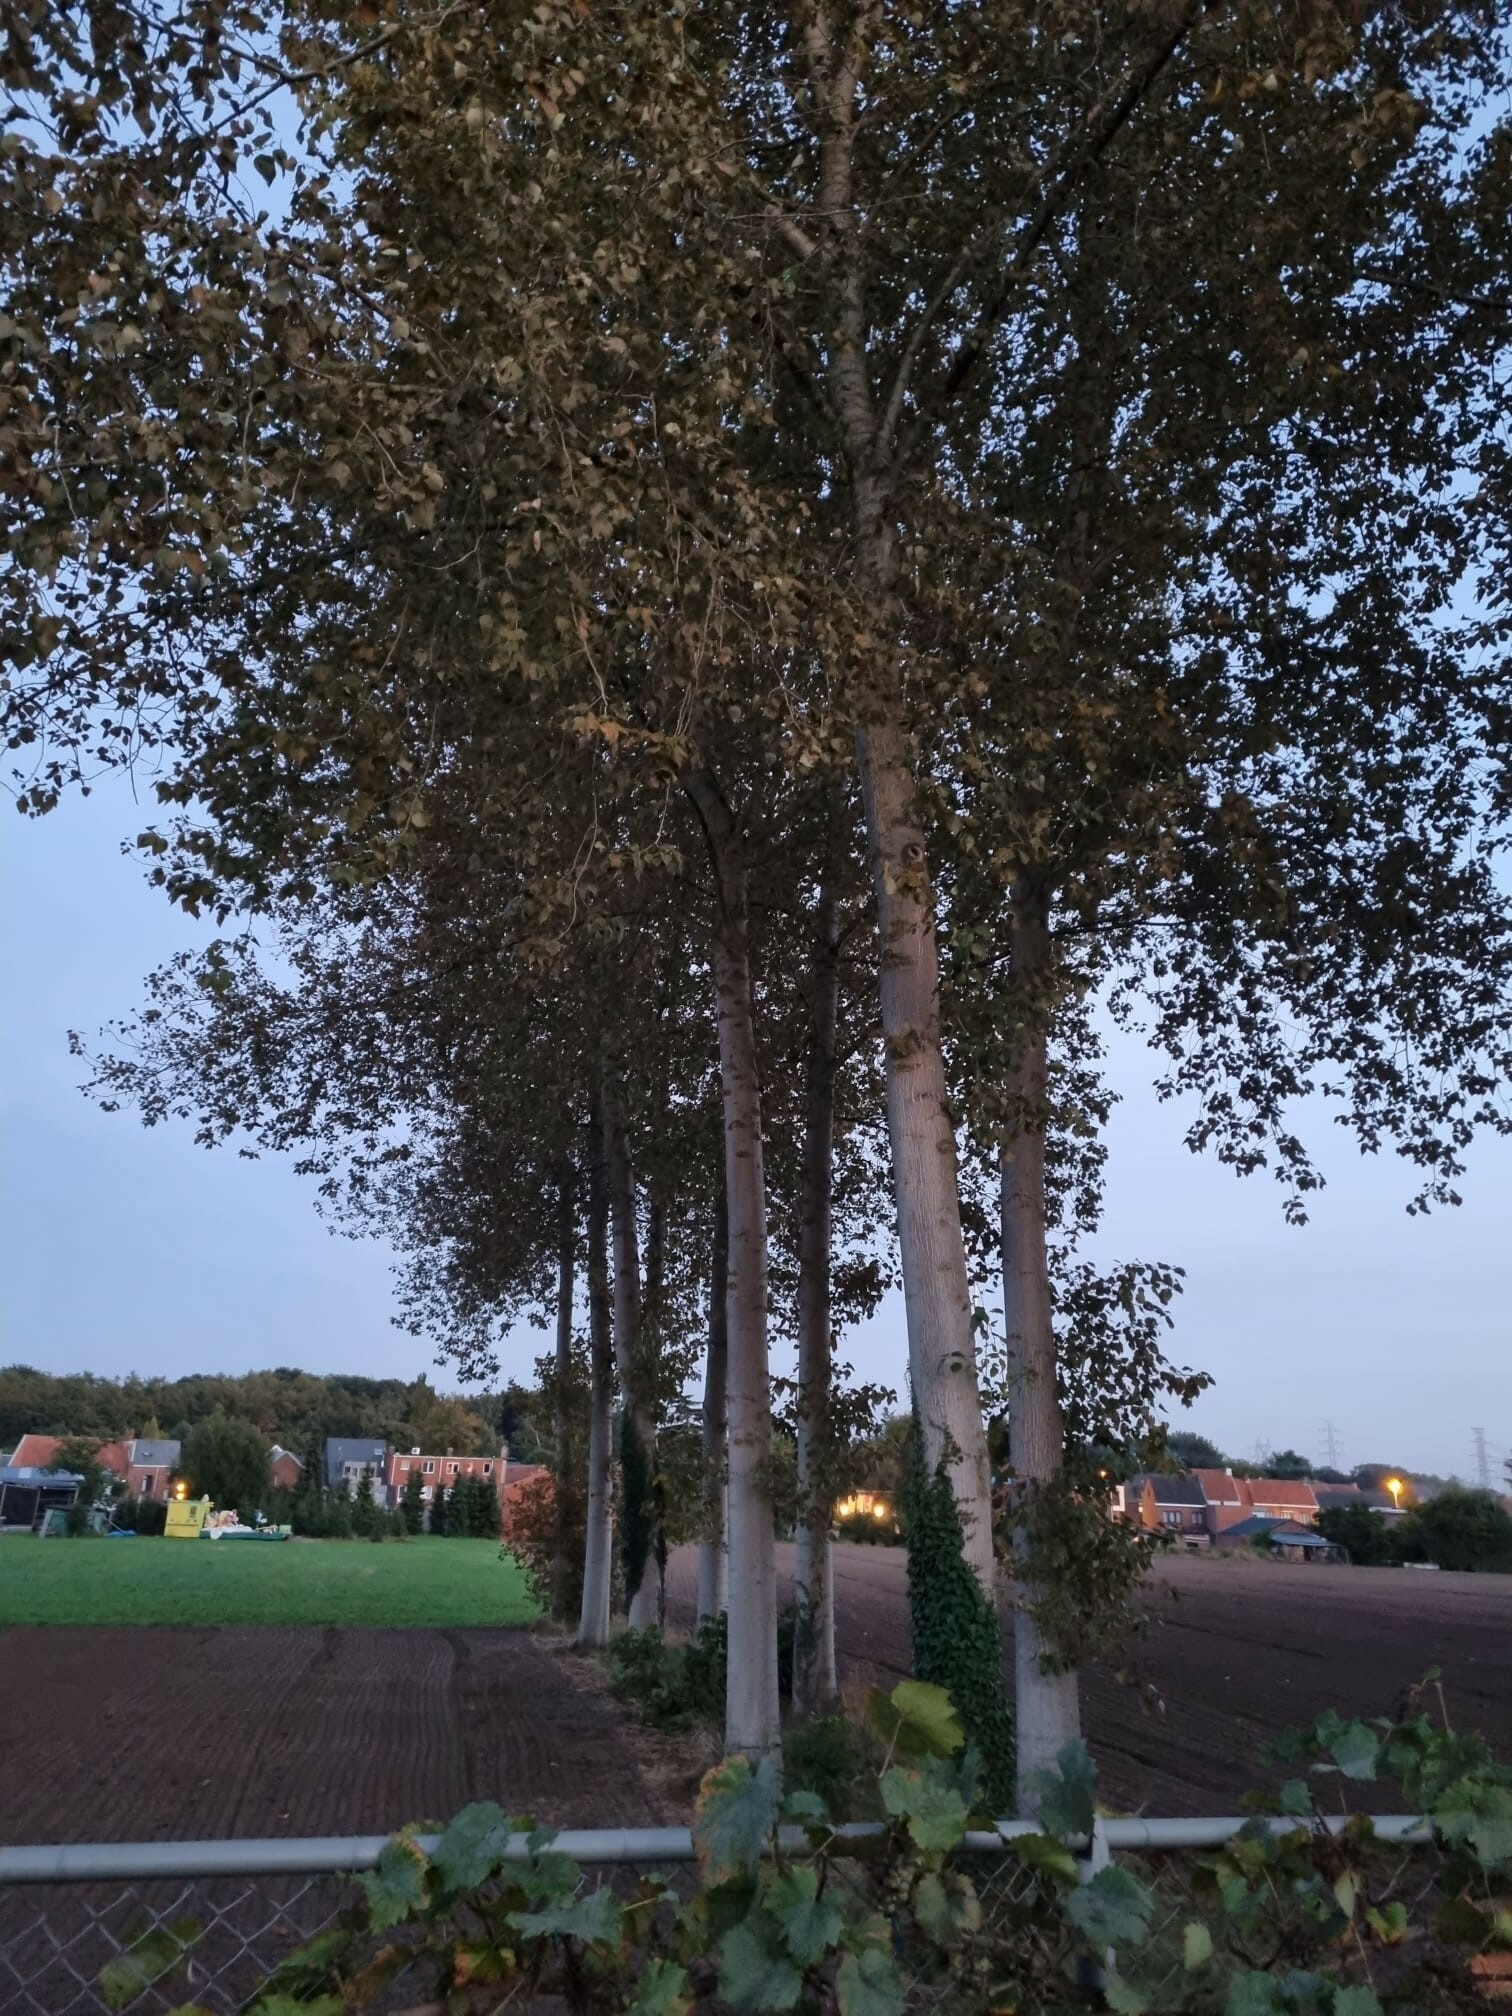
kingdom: Animalia
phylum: Arthropoda
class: Insecta
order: Hymenoptera
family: Vespidae
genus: Vespa
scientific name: Vespa velutina
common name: Asian hornet
